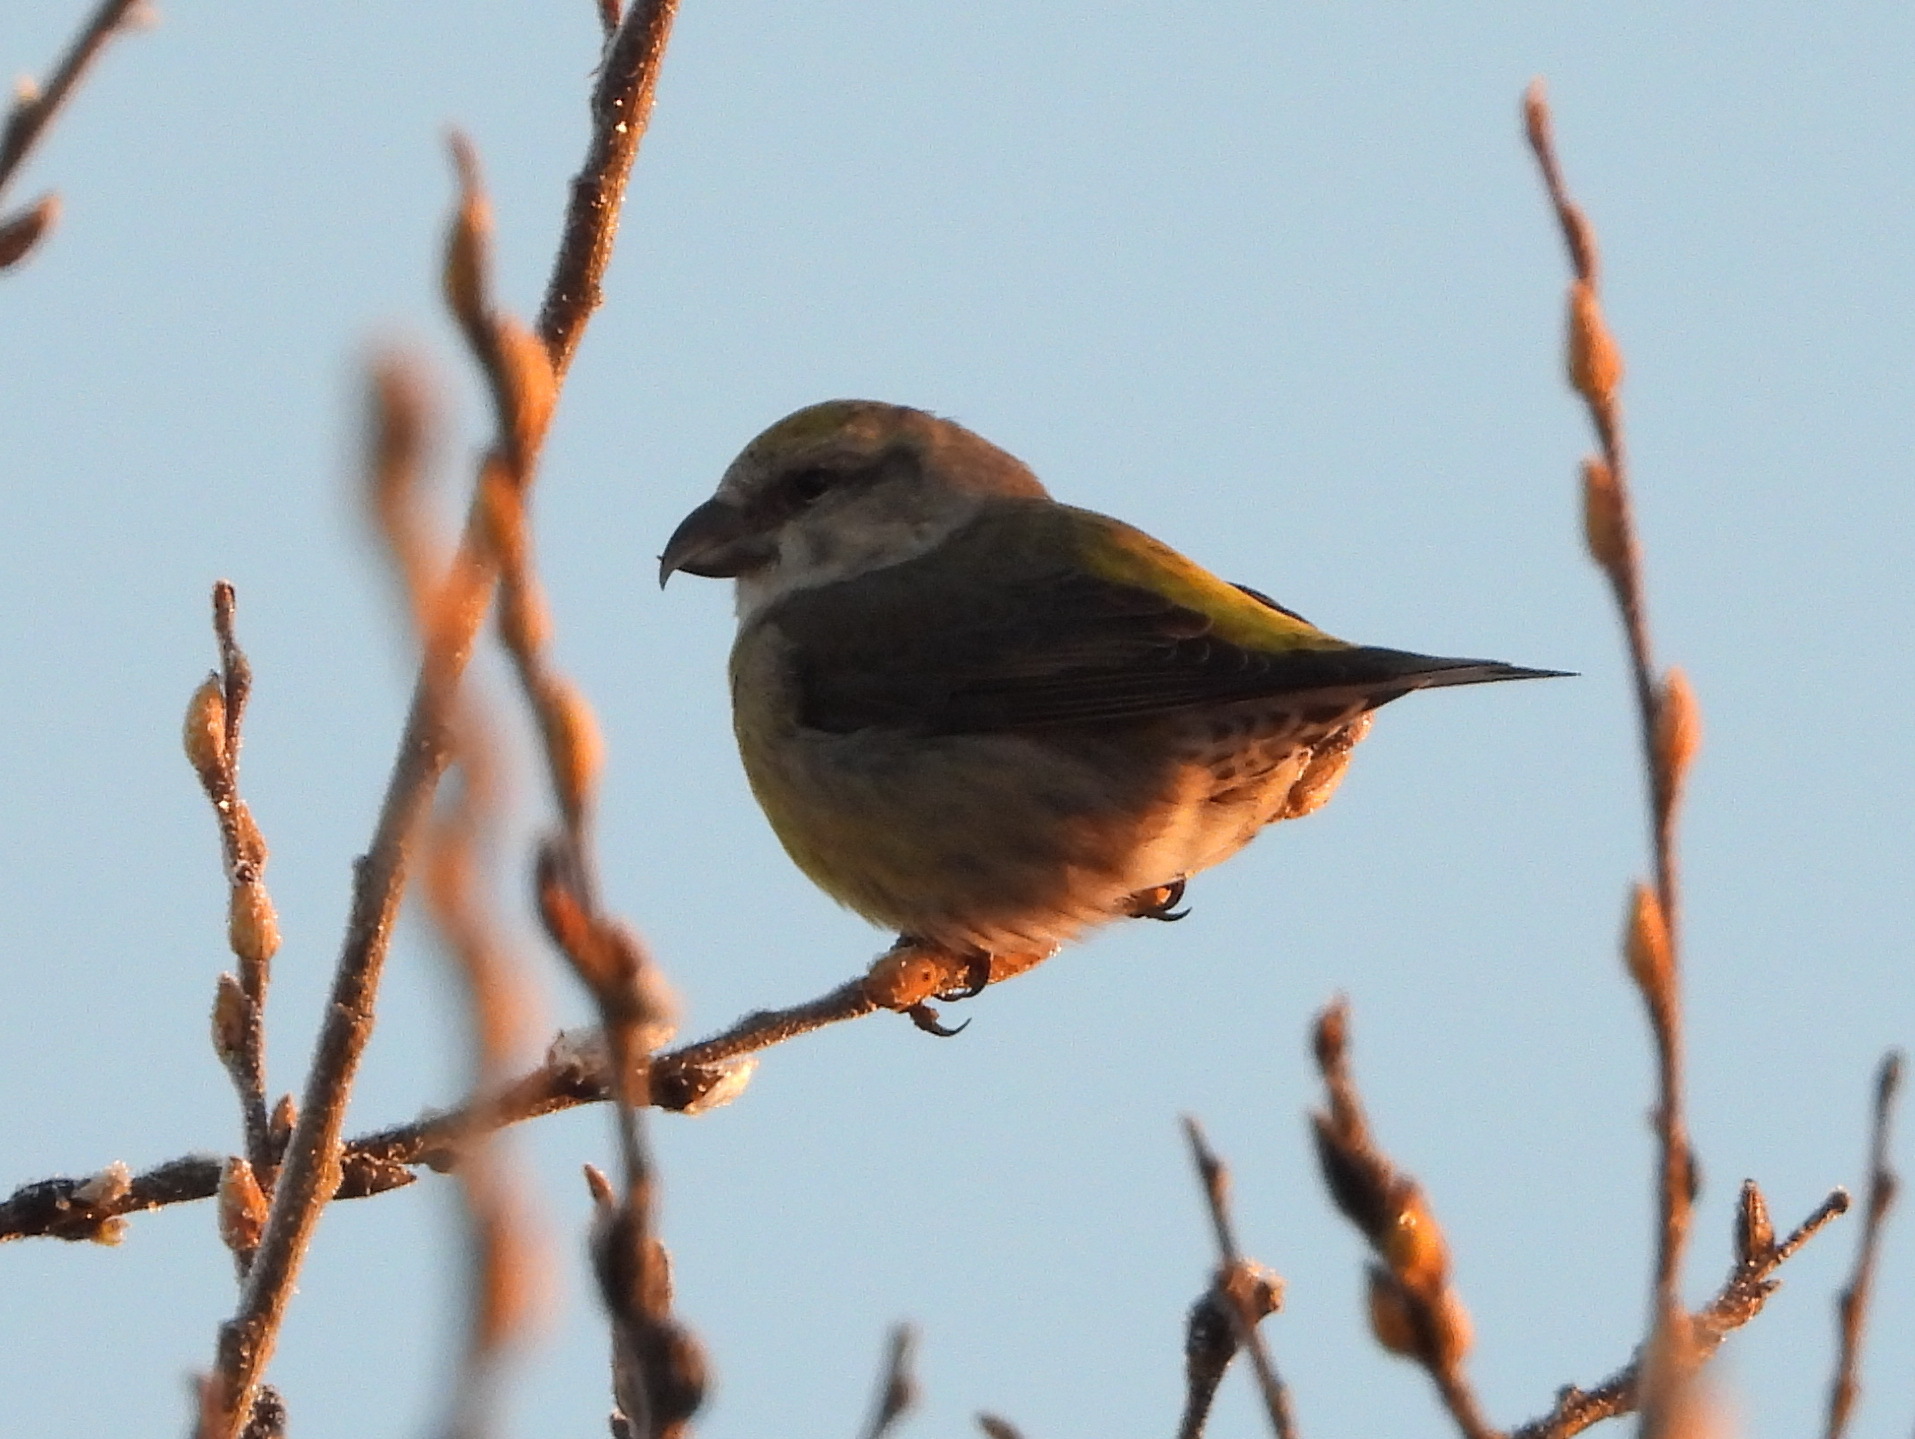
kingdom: Animalia
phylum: Chordata
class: Aves
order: Passeriformes
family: Fringillidae
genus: Loxia
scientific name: Loxia curvirostra
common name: Red crossbill
